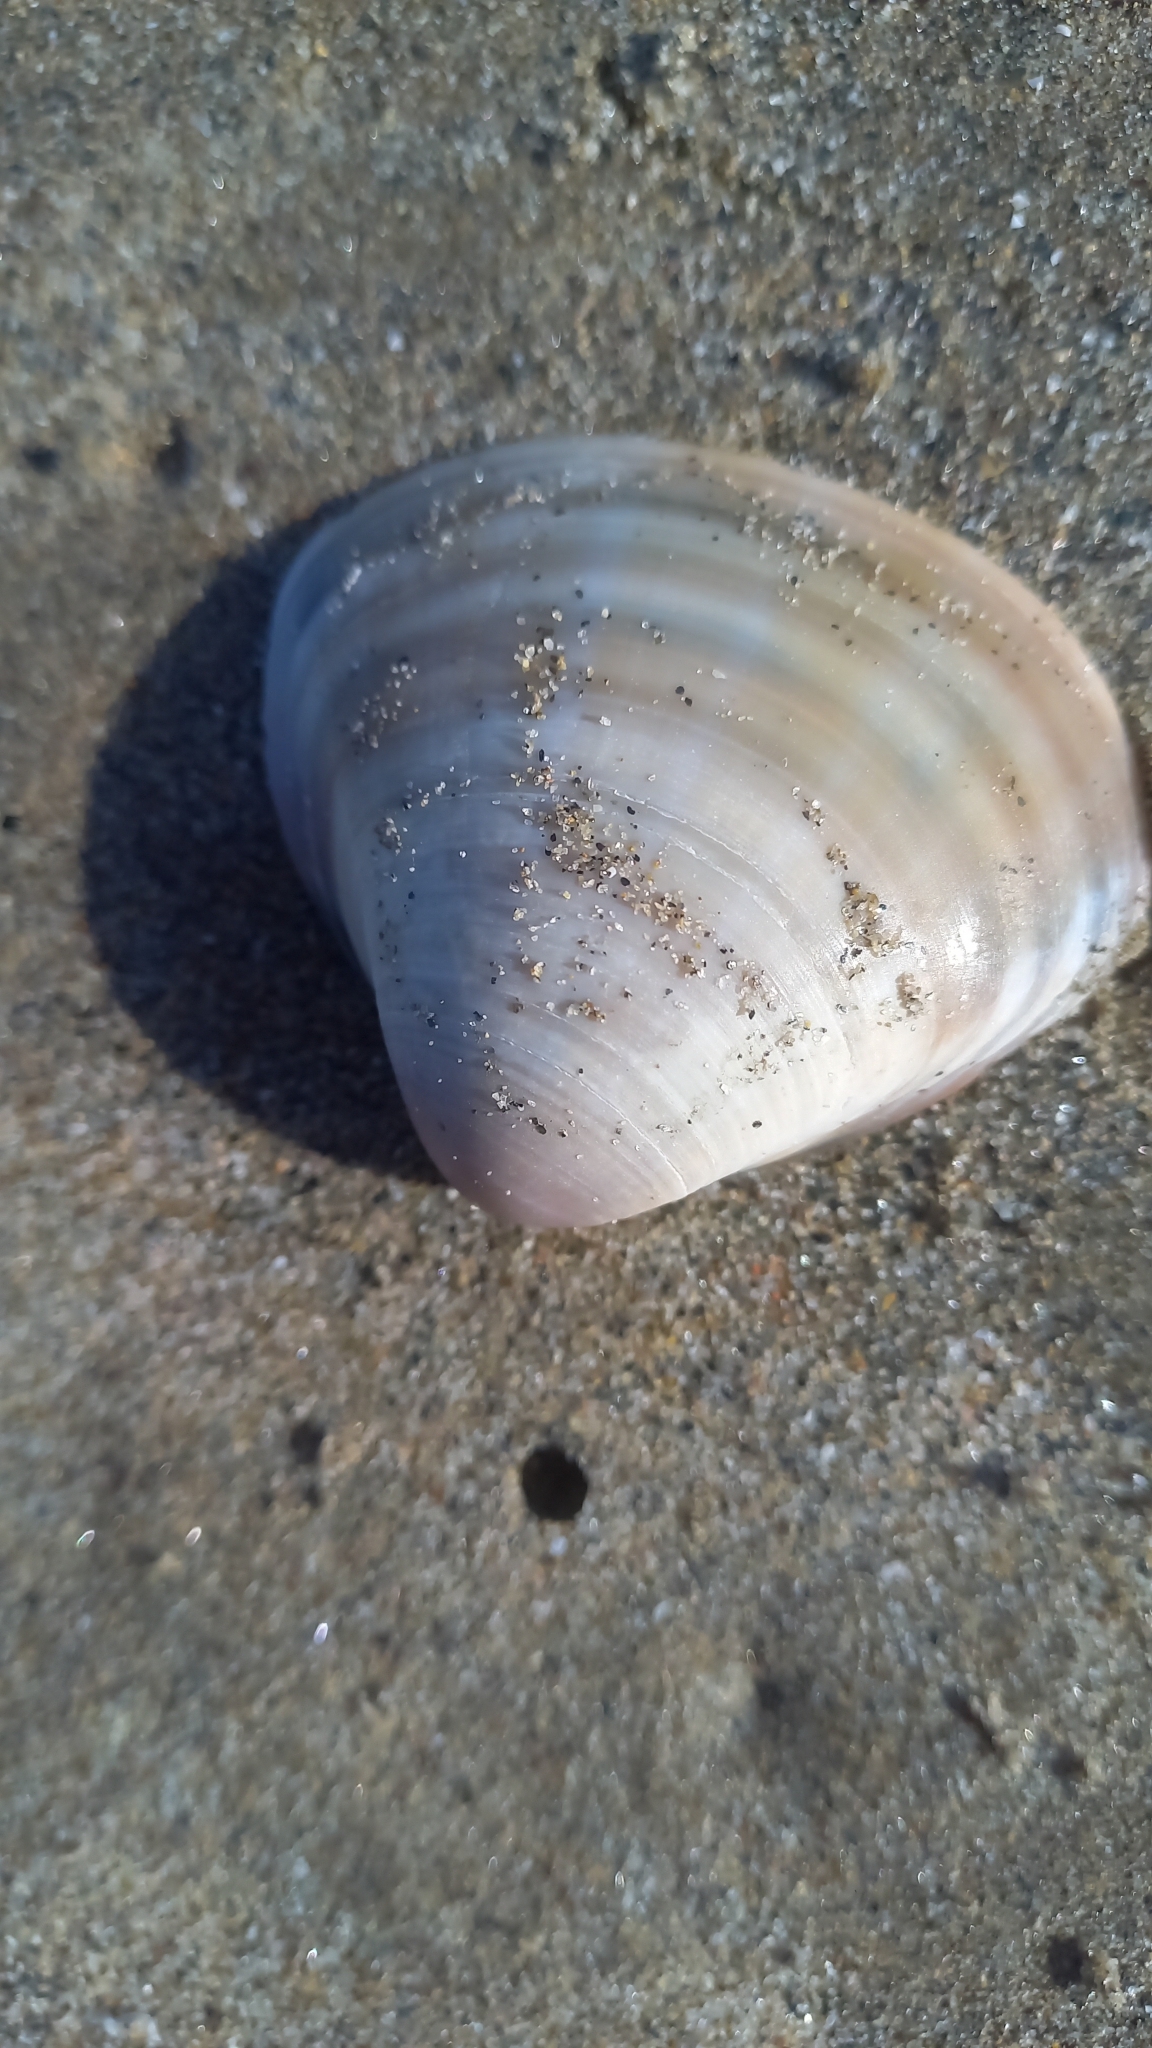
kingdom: Animalia
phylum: Mollusca
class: Bivalvia
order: Venerida
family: Mactridae
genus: Mactra
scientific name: Mactra stultorum
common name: Rayed trough shell
